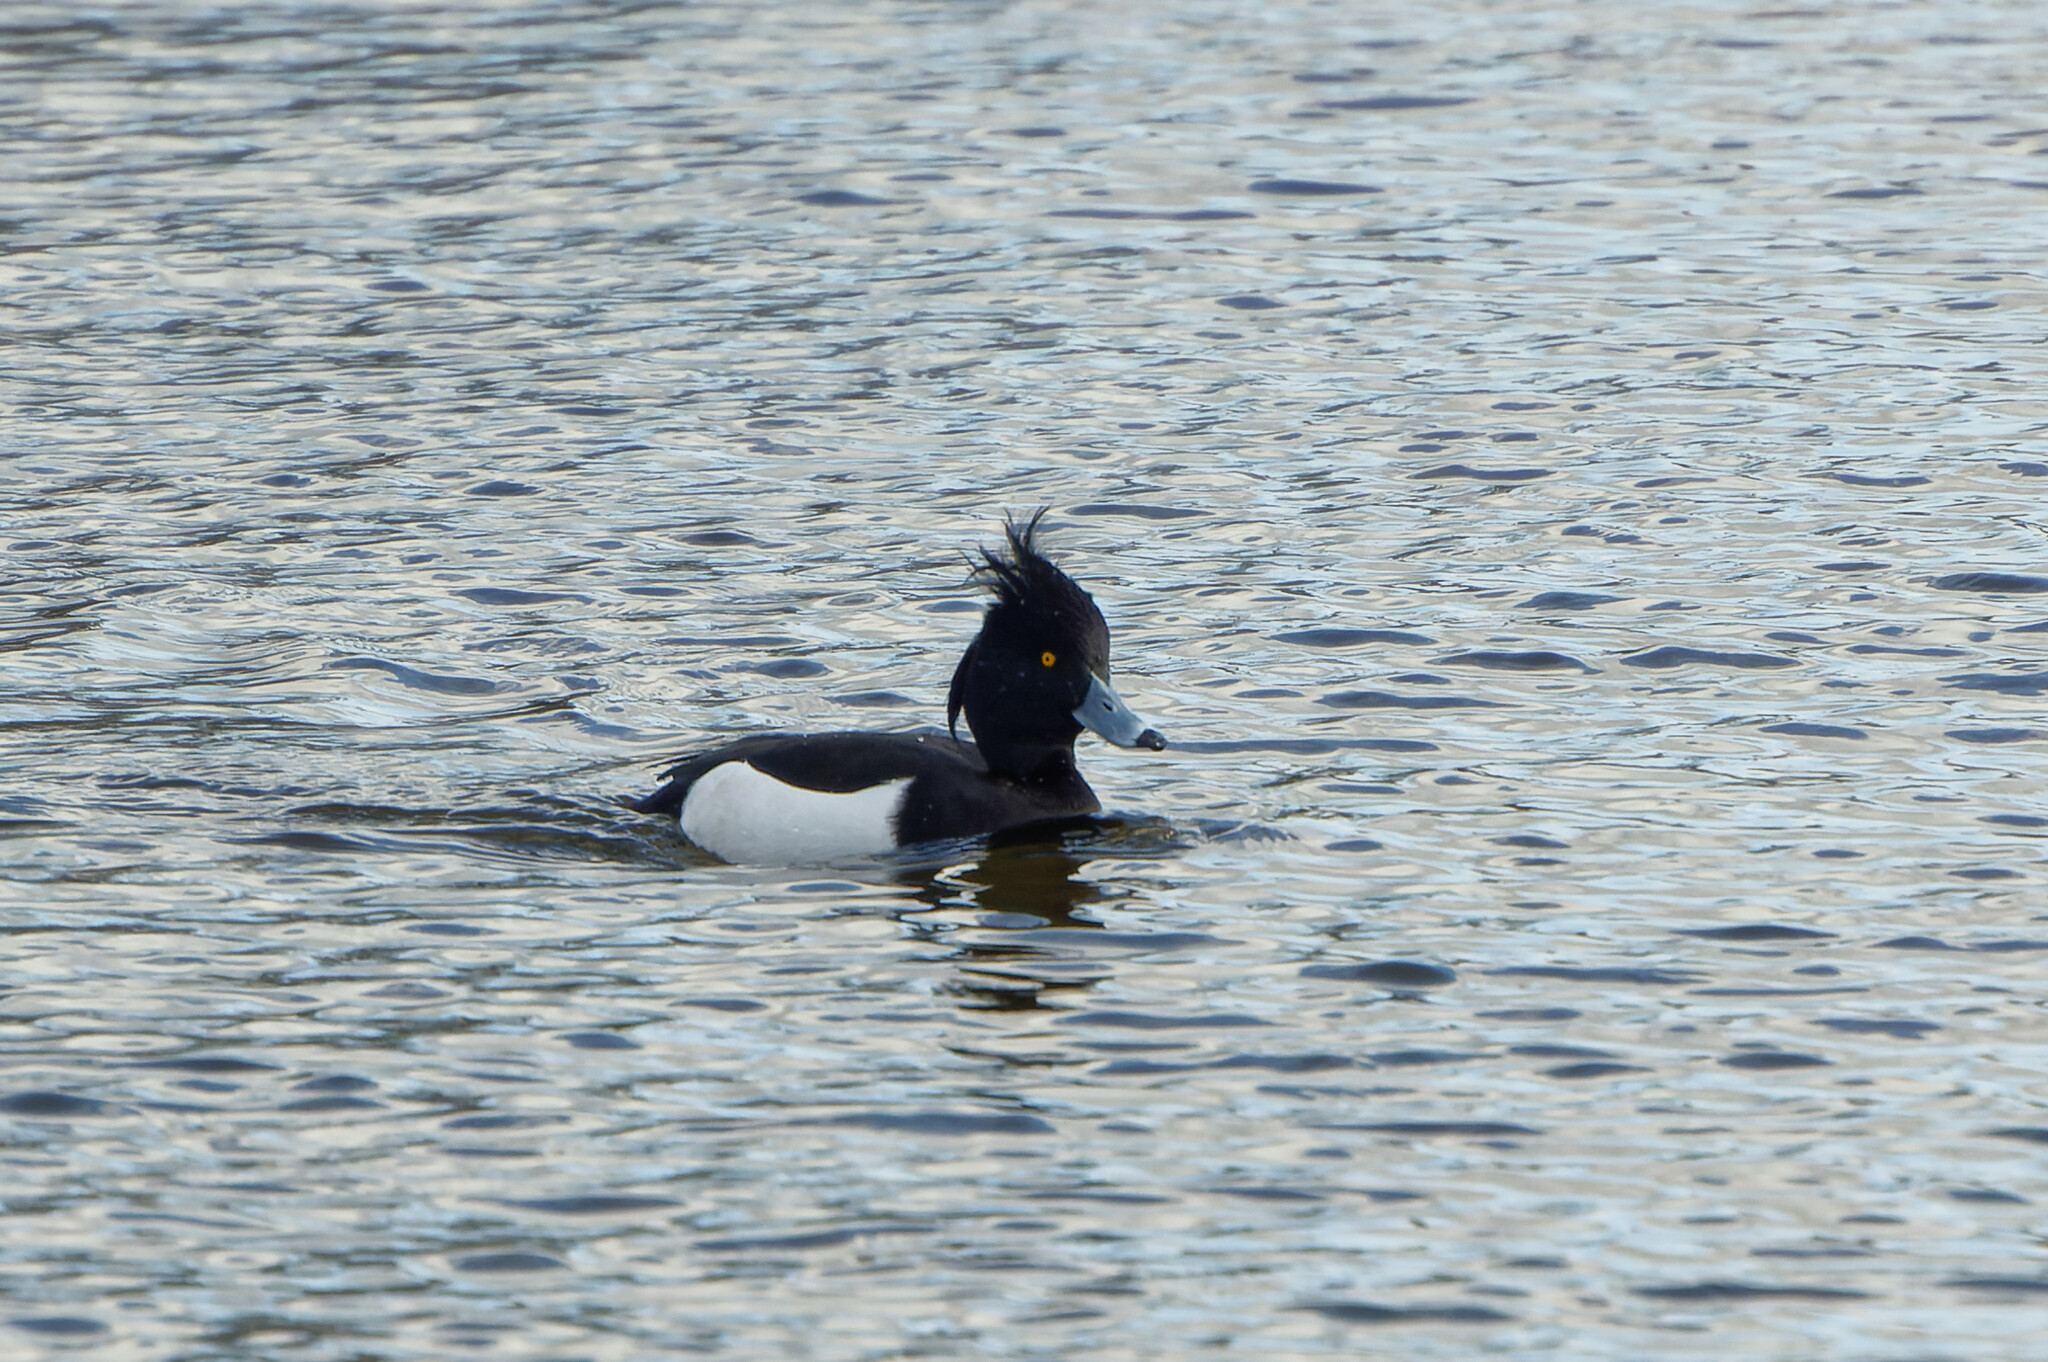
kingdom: Animalia
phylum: Chordata
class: Aves
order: Anseriformes
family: Anatidae
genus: Aythya
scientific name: Aythya fuligula
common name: Tufted duck
